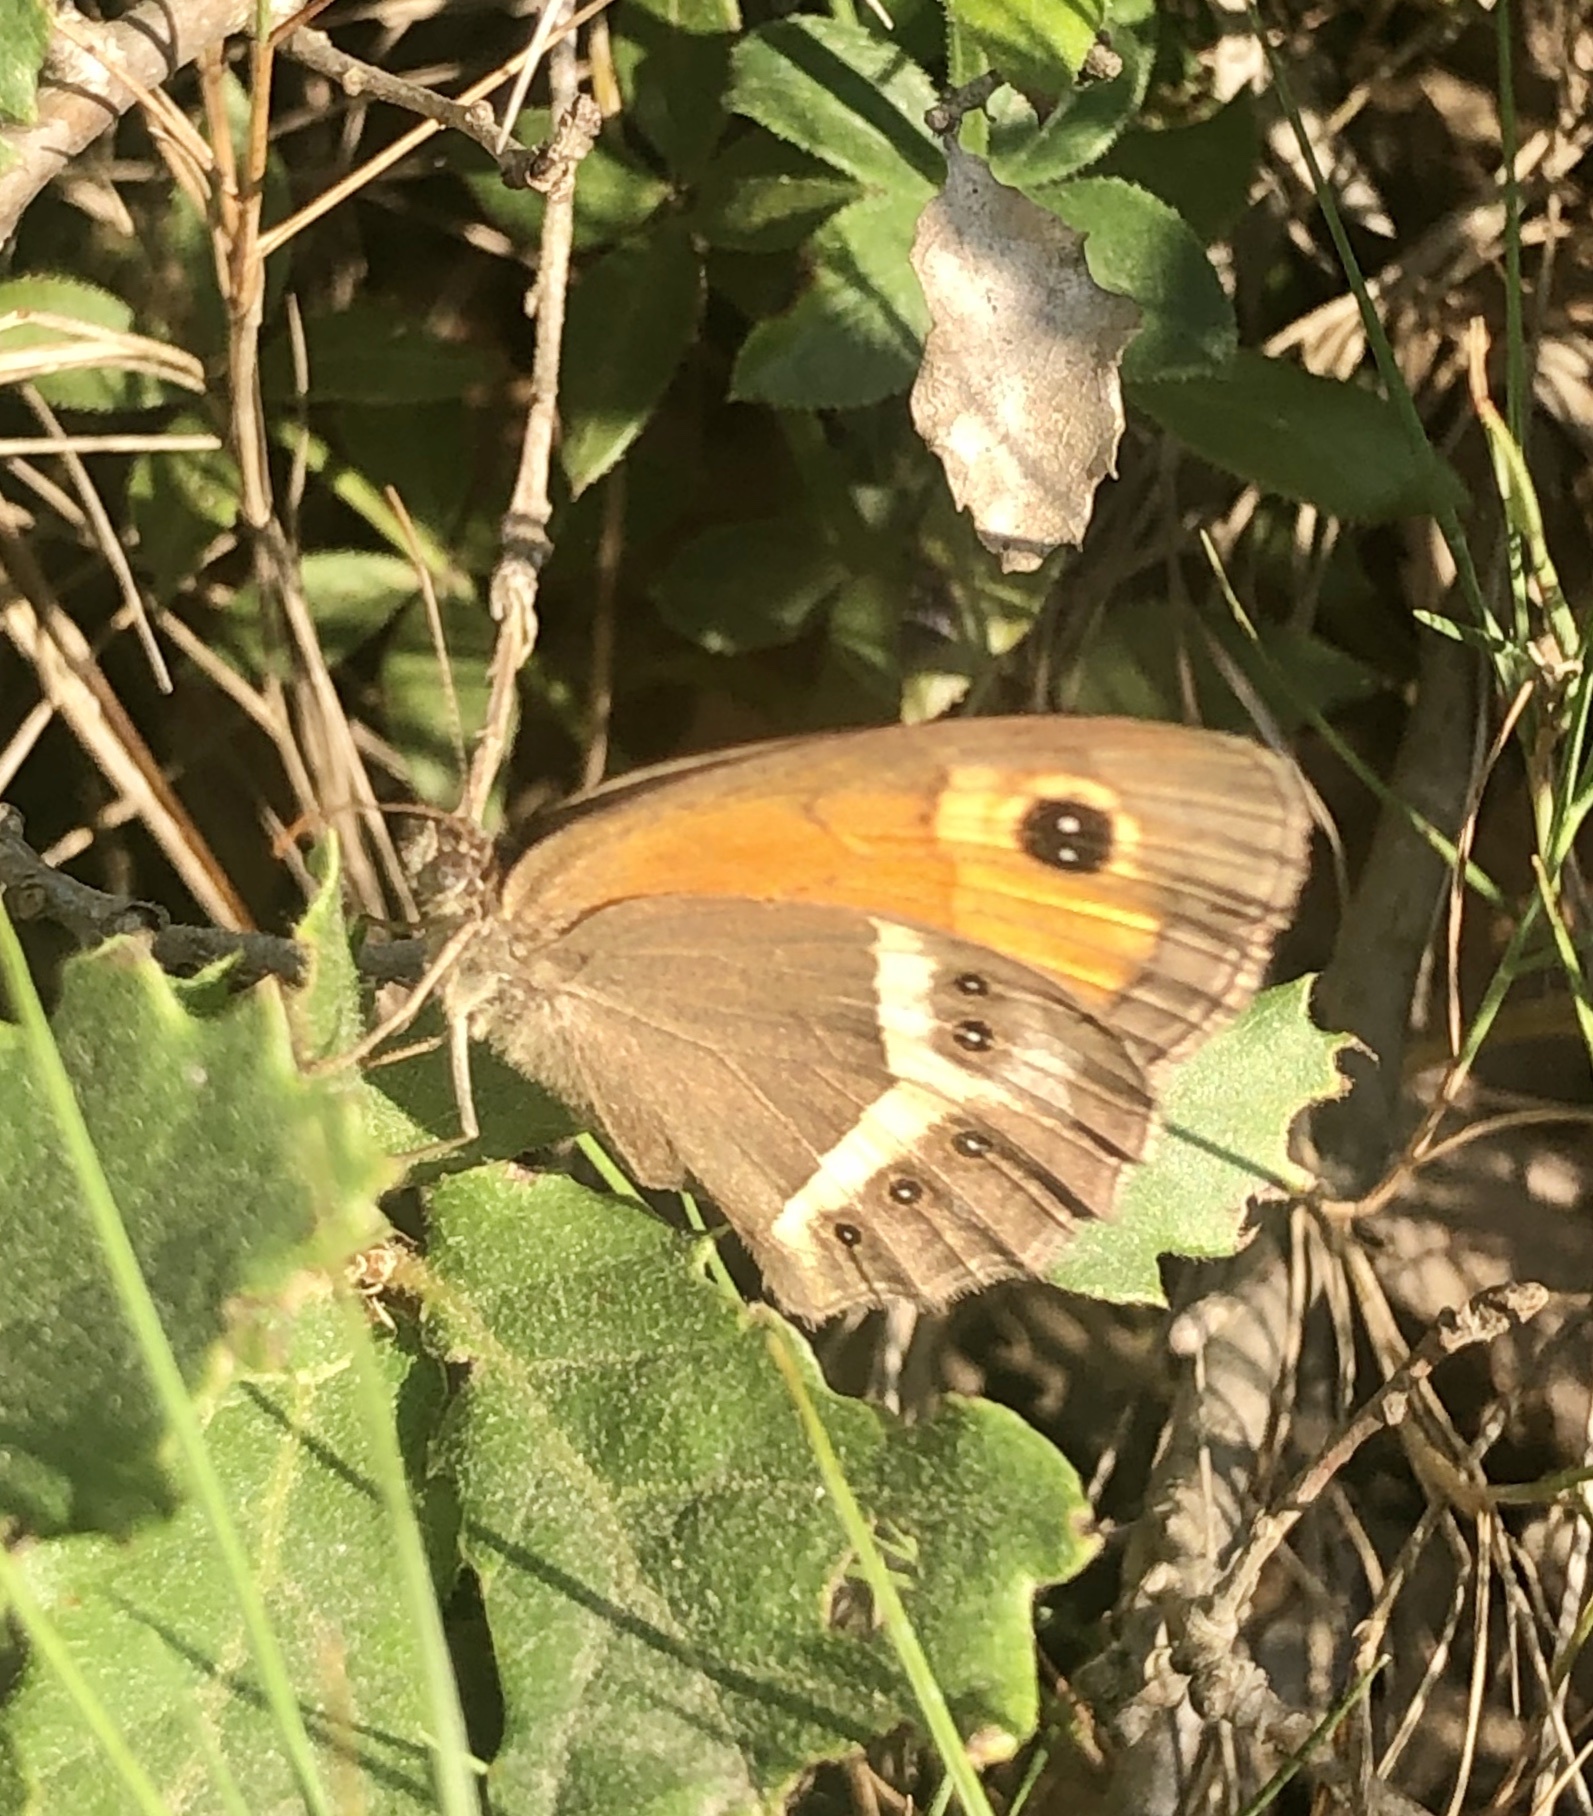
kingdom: Animalia
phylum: Arthropoda
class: Insecta
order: Lepidoptera
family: Nymphalidae
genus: Pyronia
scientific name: Pyronia bathseba
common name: Spanish gatekeeper
